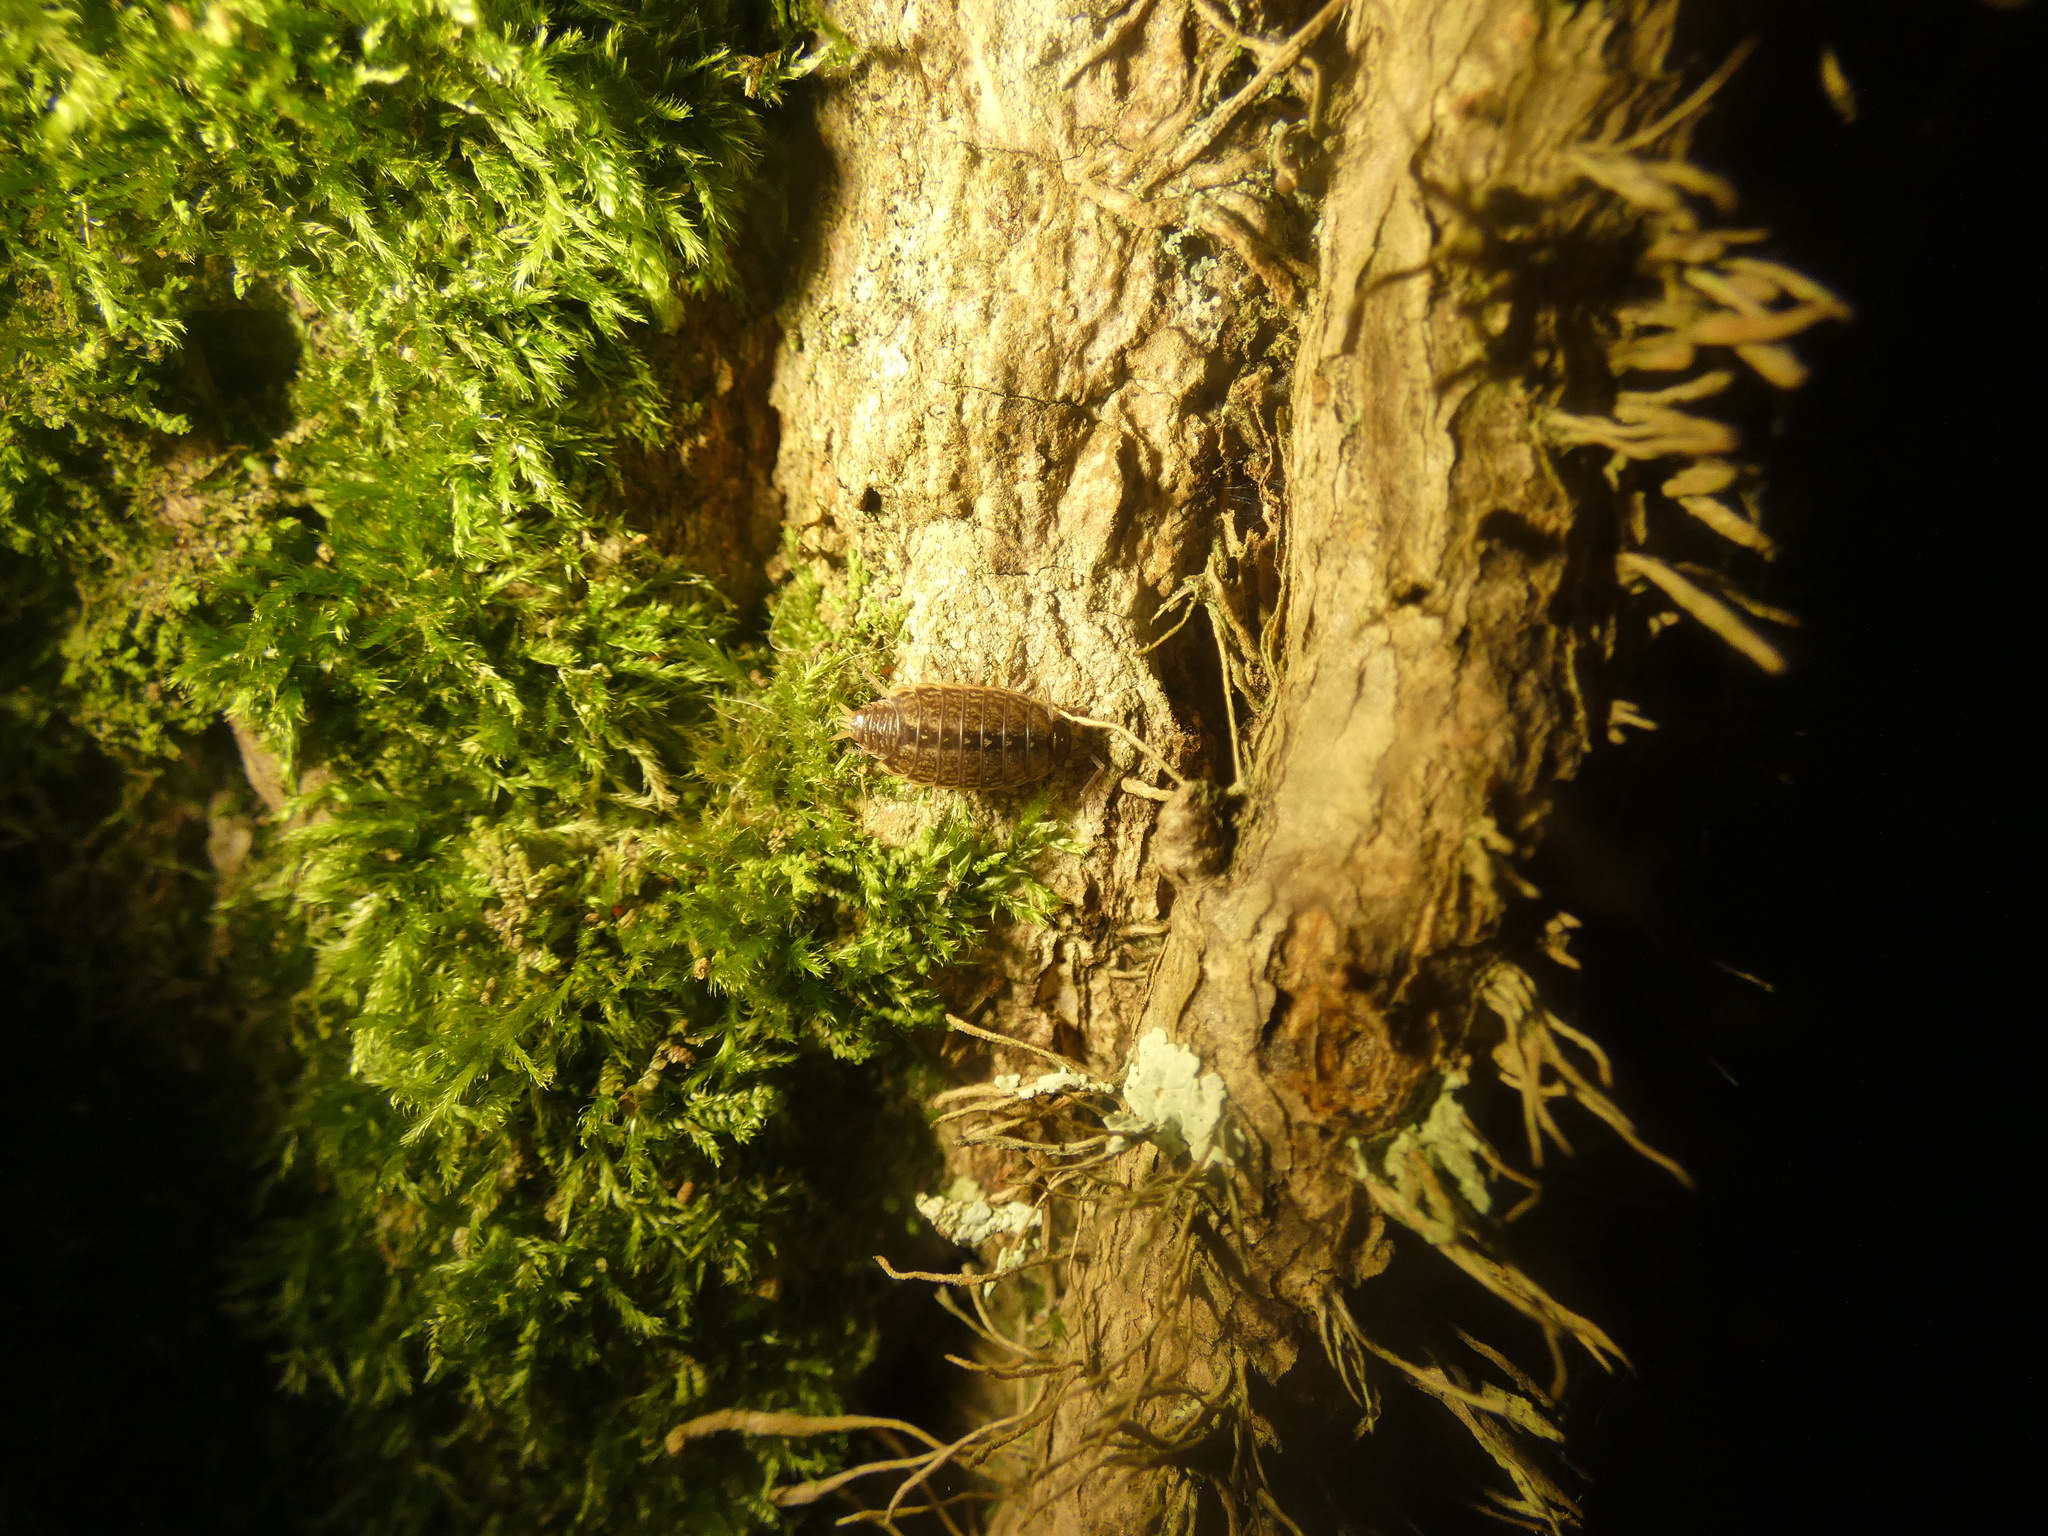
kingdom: Animalia
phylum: Arthropoda
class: Malacostraca
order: Isopoda
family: Philosciidae
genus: Philoscia
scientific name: Philoscia muscorum
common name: Common striped woodlouse
